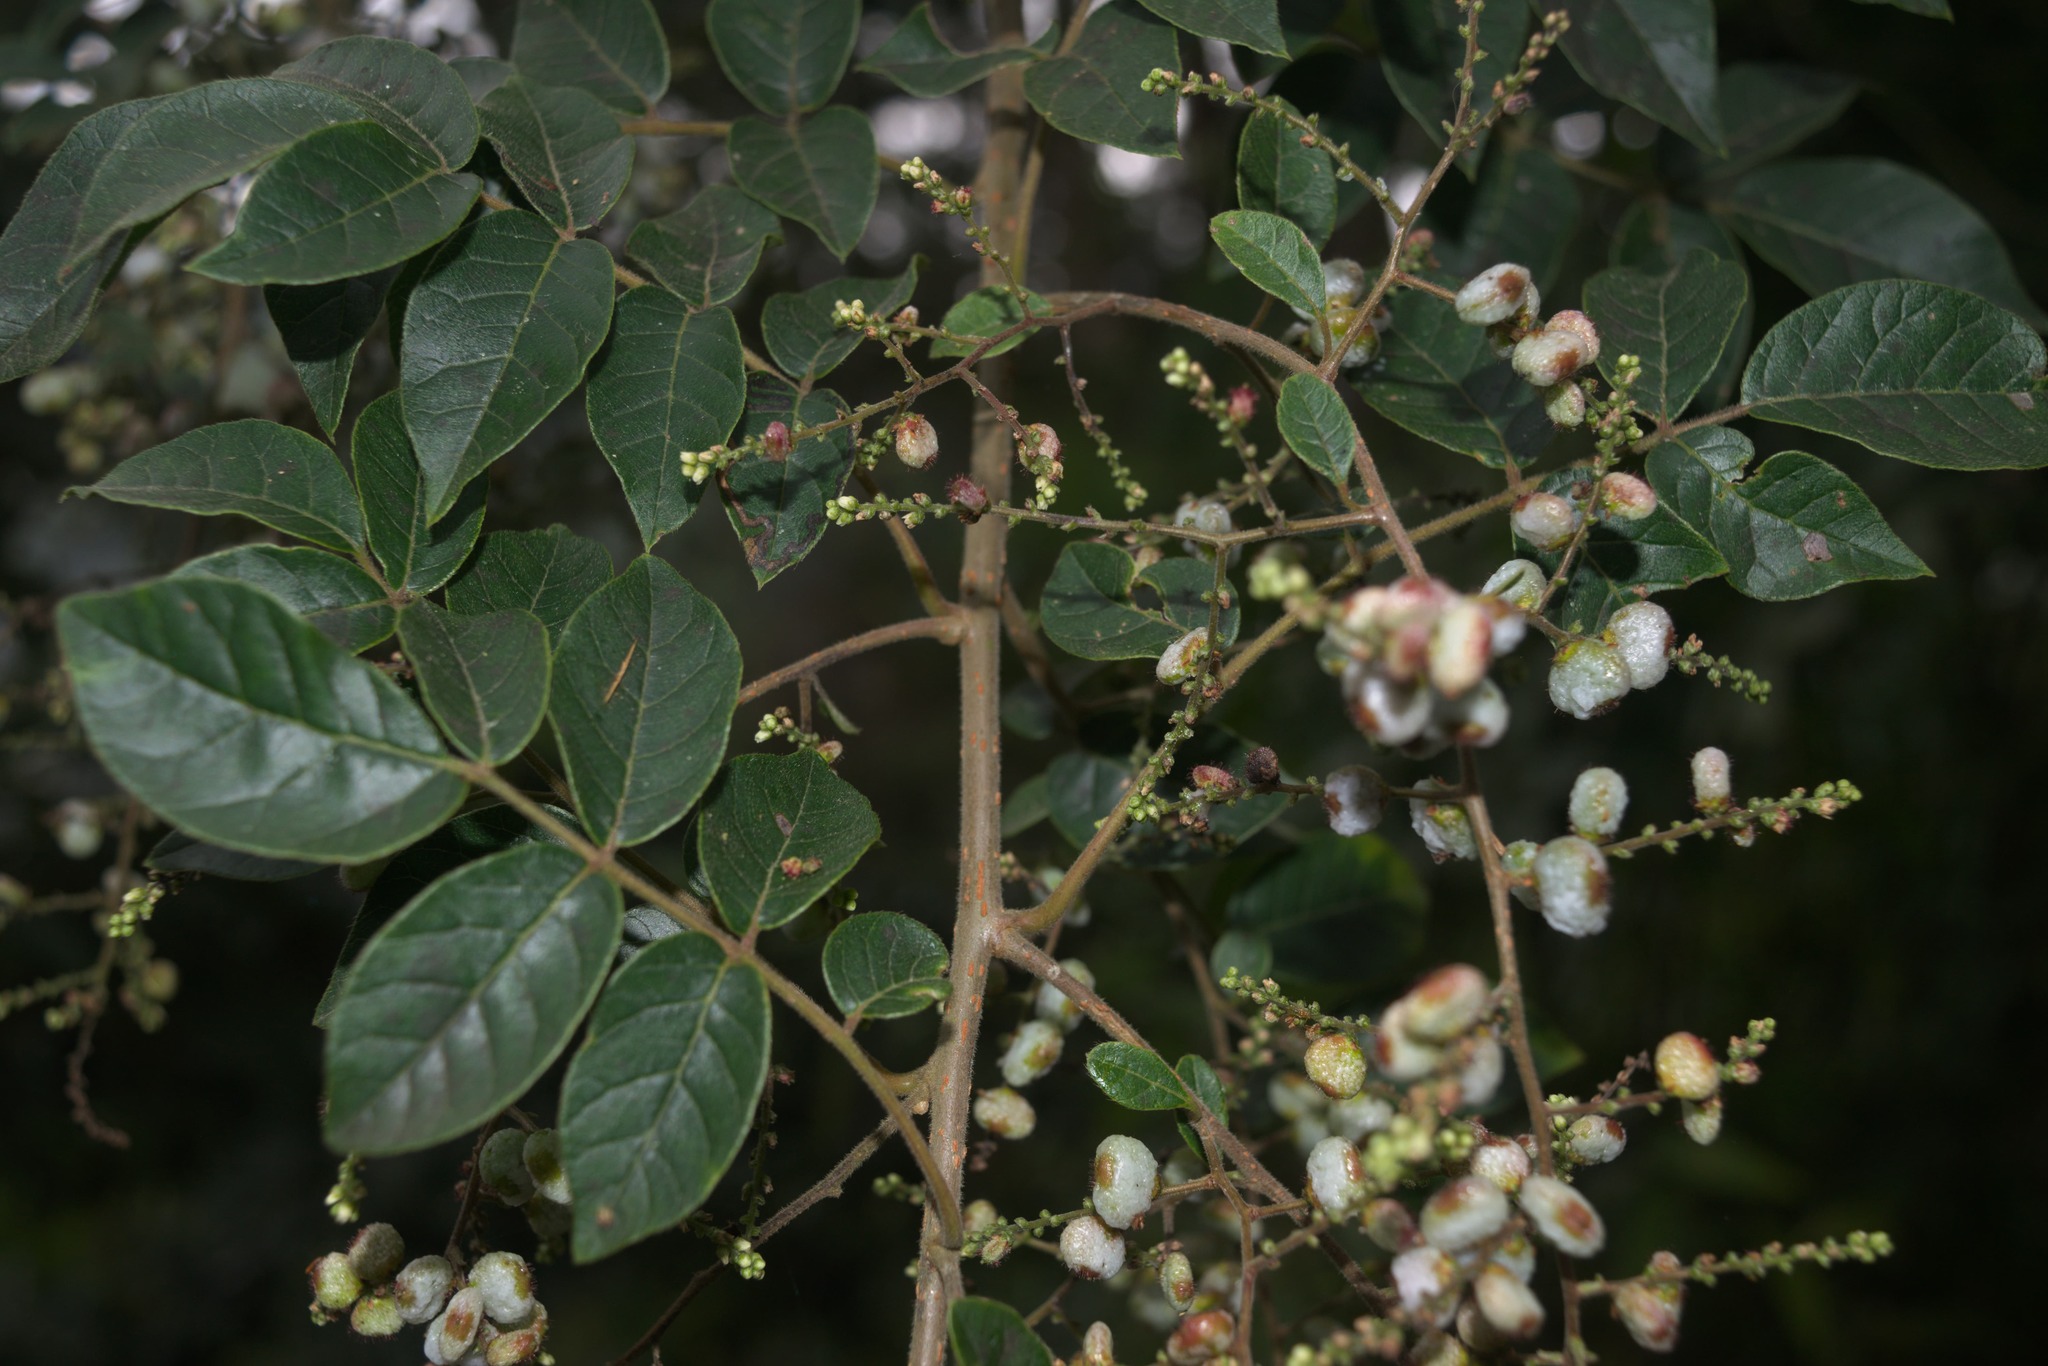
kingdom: Plantae
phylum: Tracheophyta
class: Magnoliopsida
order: Sapindales
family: Anacardiaceae
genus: Rhus
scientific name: Rhus terebinthifolia
